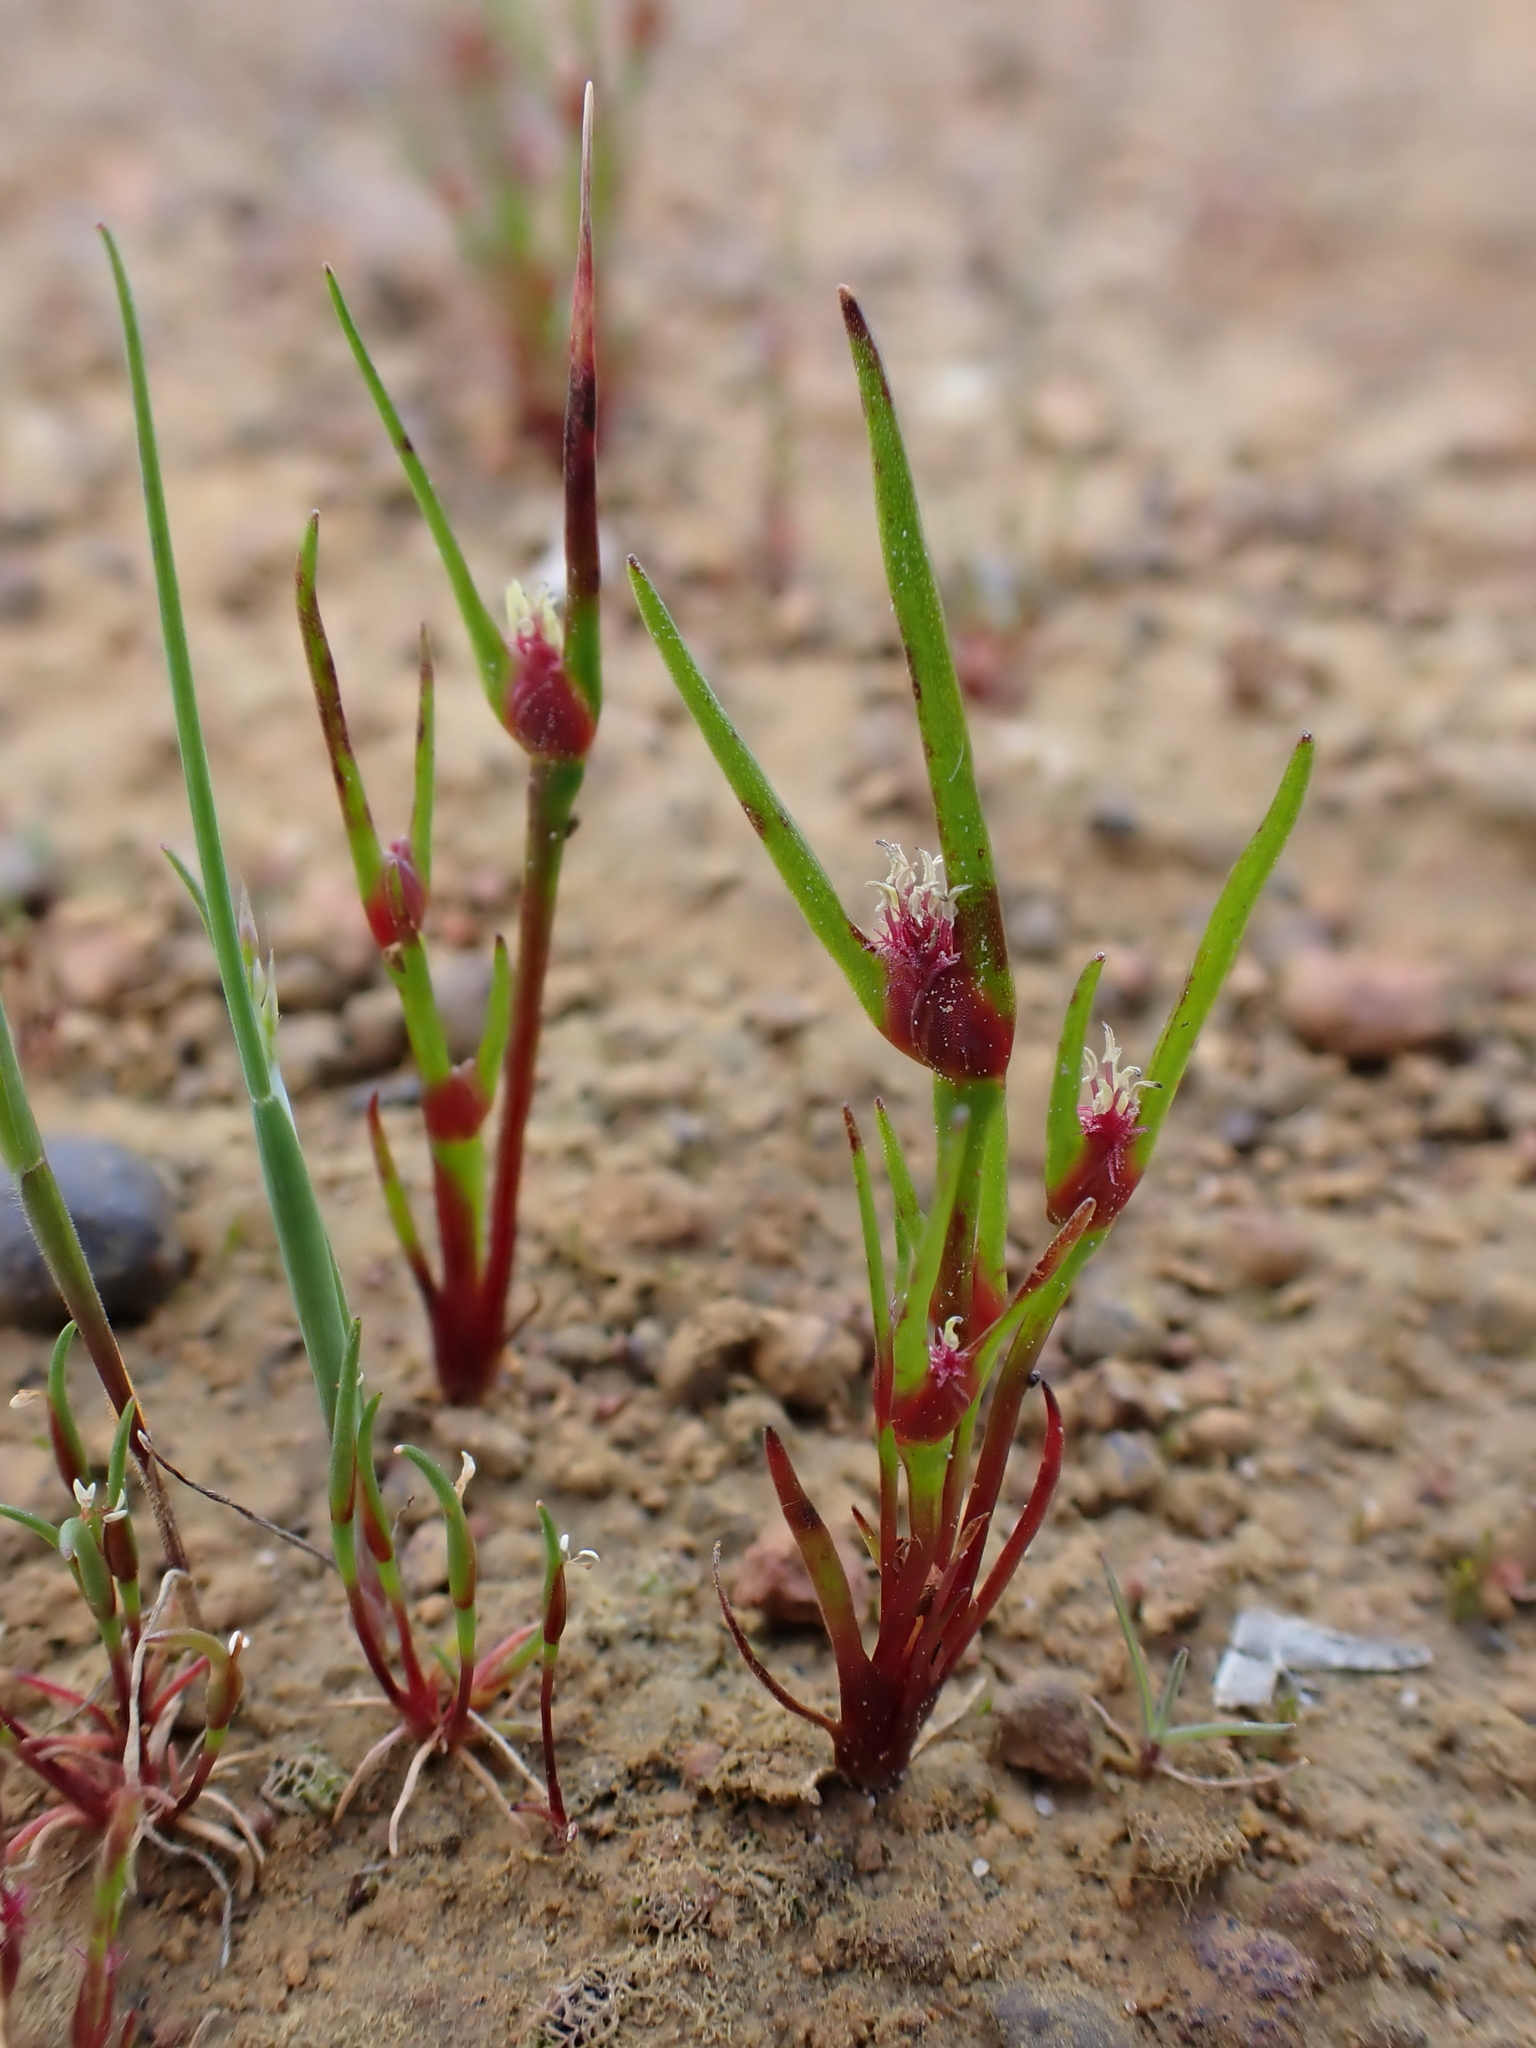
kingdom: Plantae
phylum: Tracheophyta
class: Liliopsida
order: Poales
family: Restionaceae
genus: Centrolepis
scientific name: Centrolepis aristata
